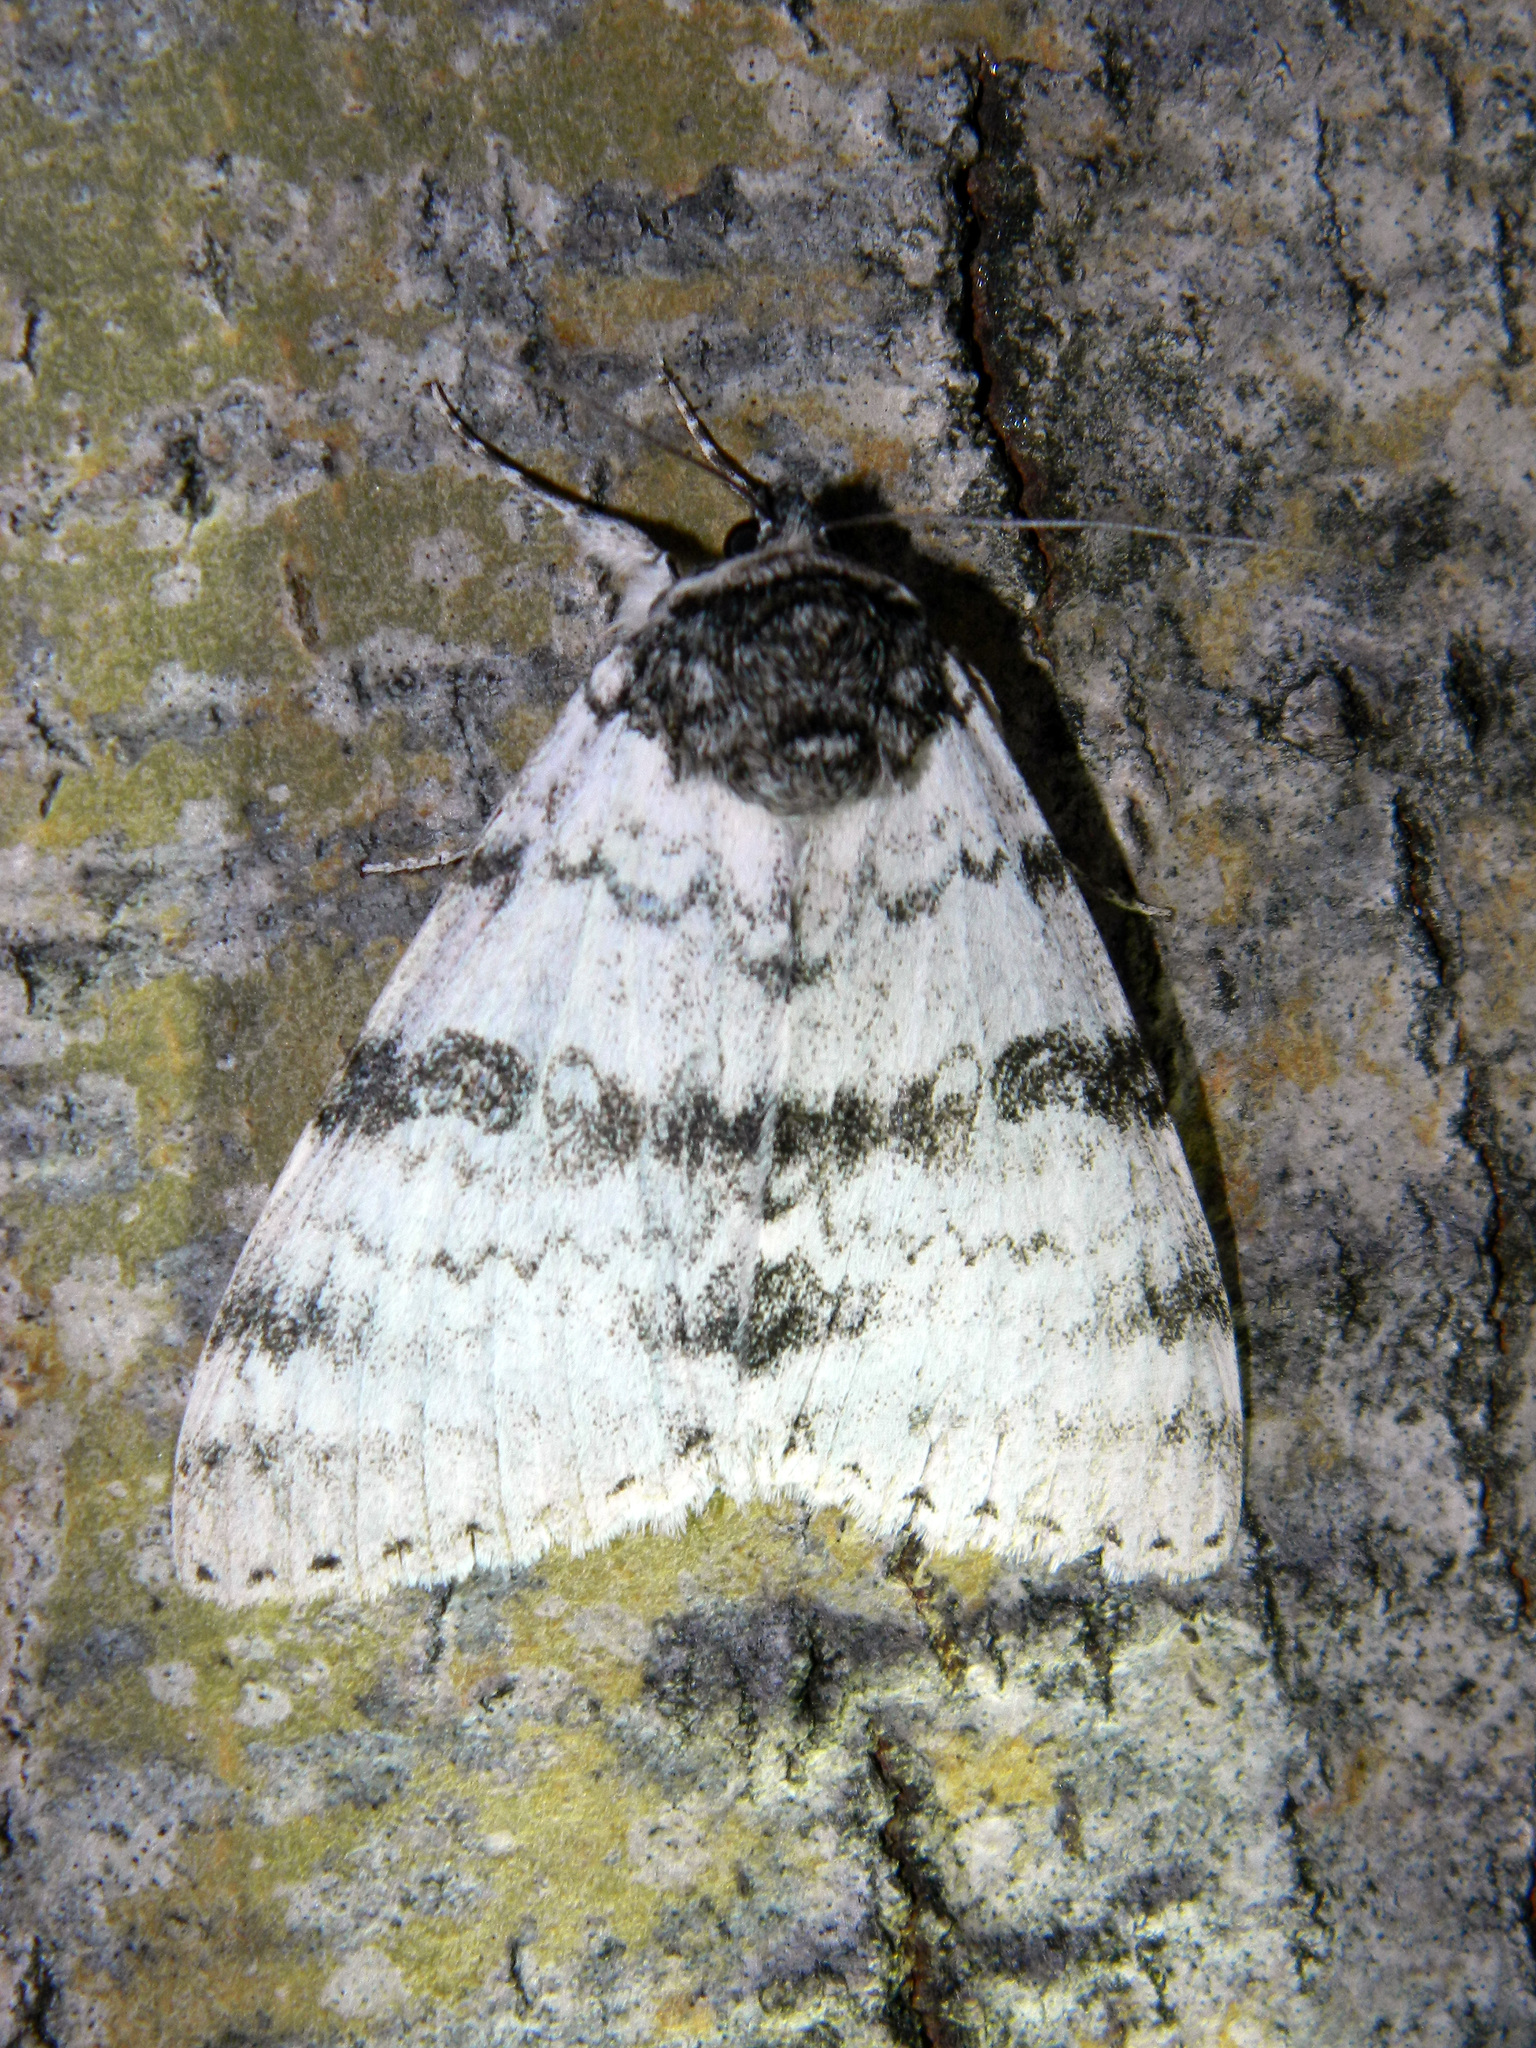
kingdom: Animalia
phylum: Arthropoda
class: Insecta
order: Lepidoptera
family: Erebidae
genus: Catocala
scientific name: Catocala relicta
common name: White underwing
